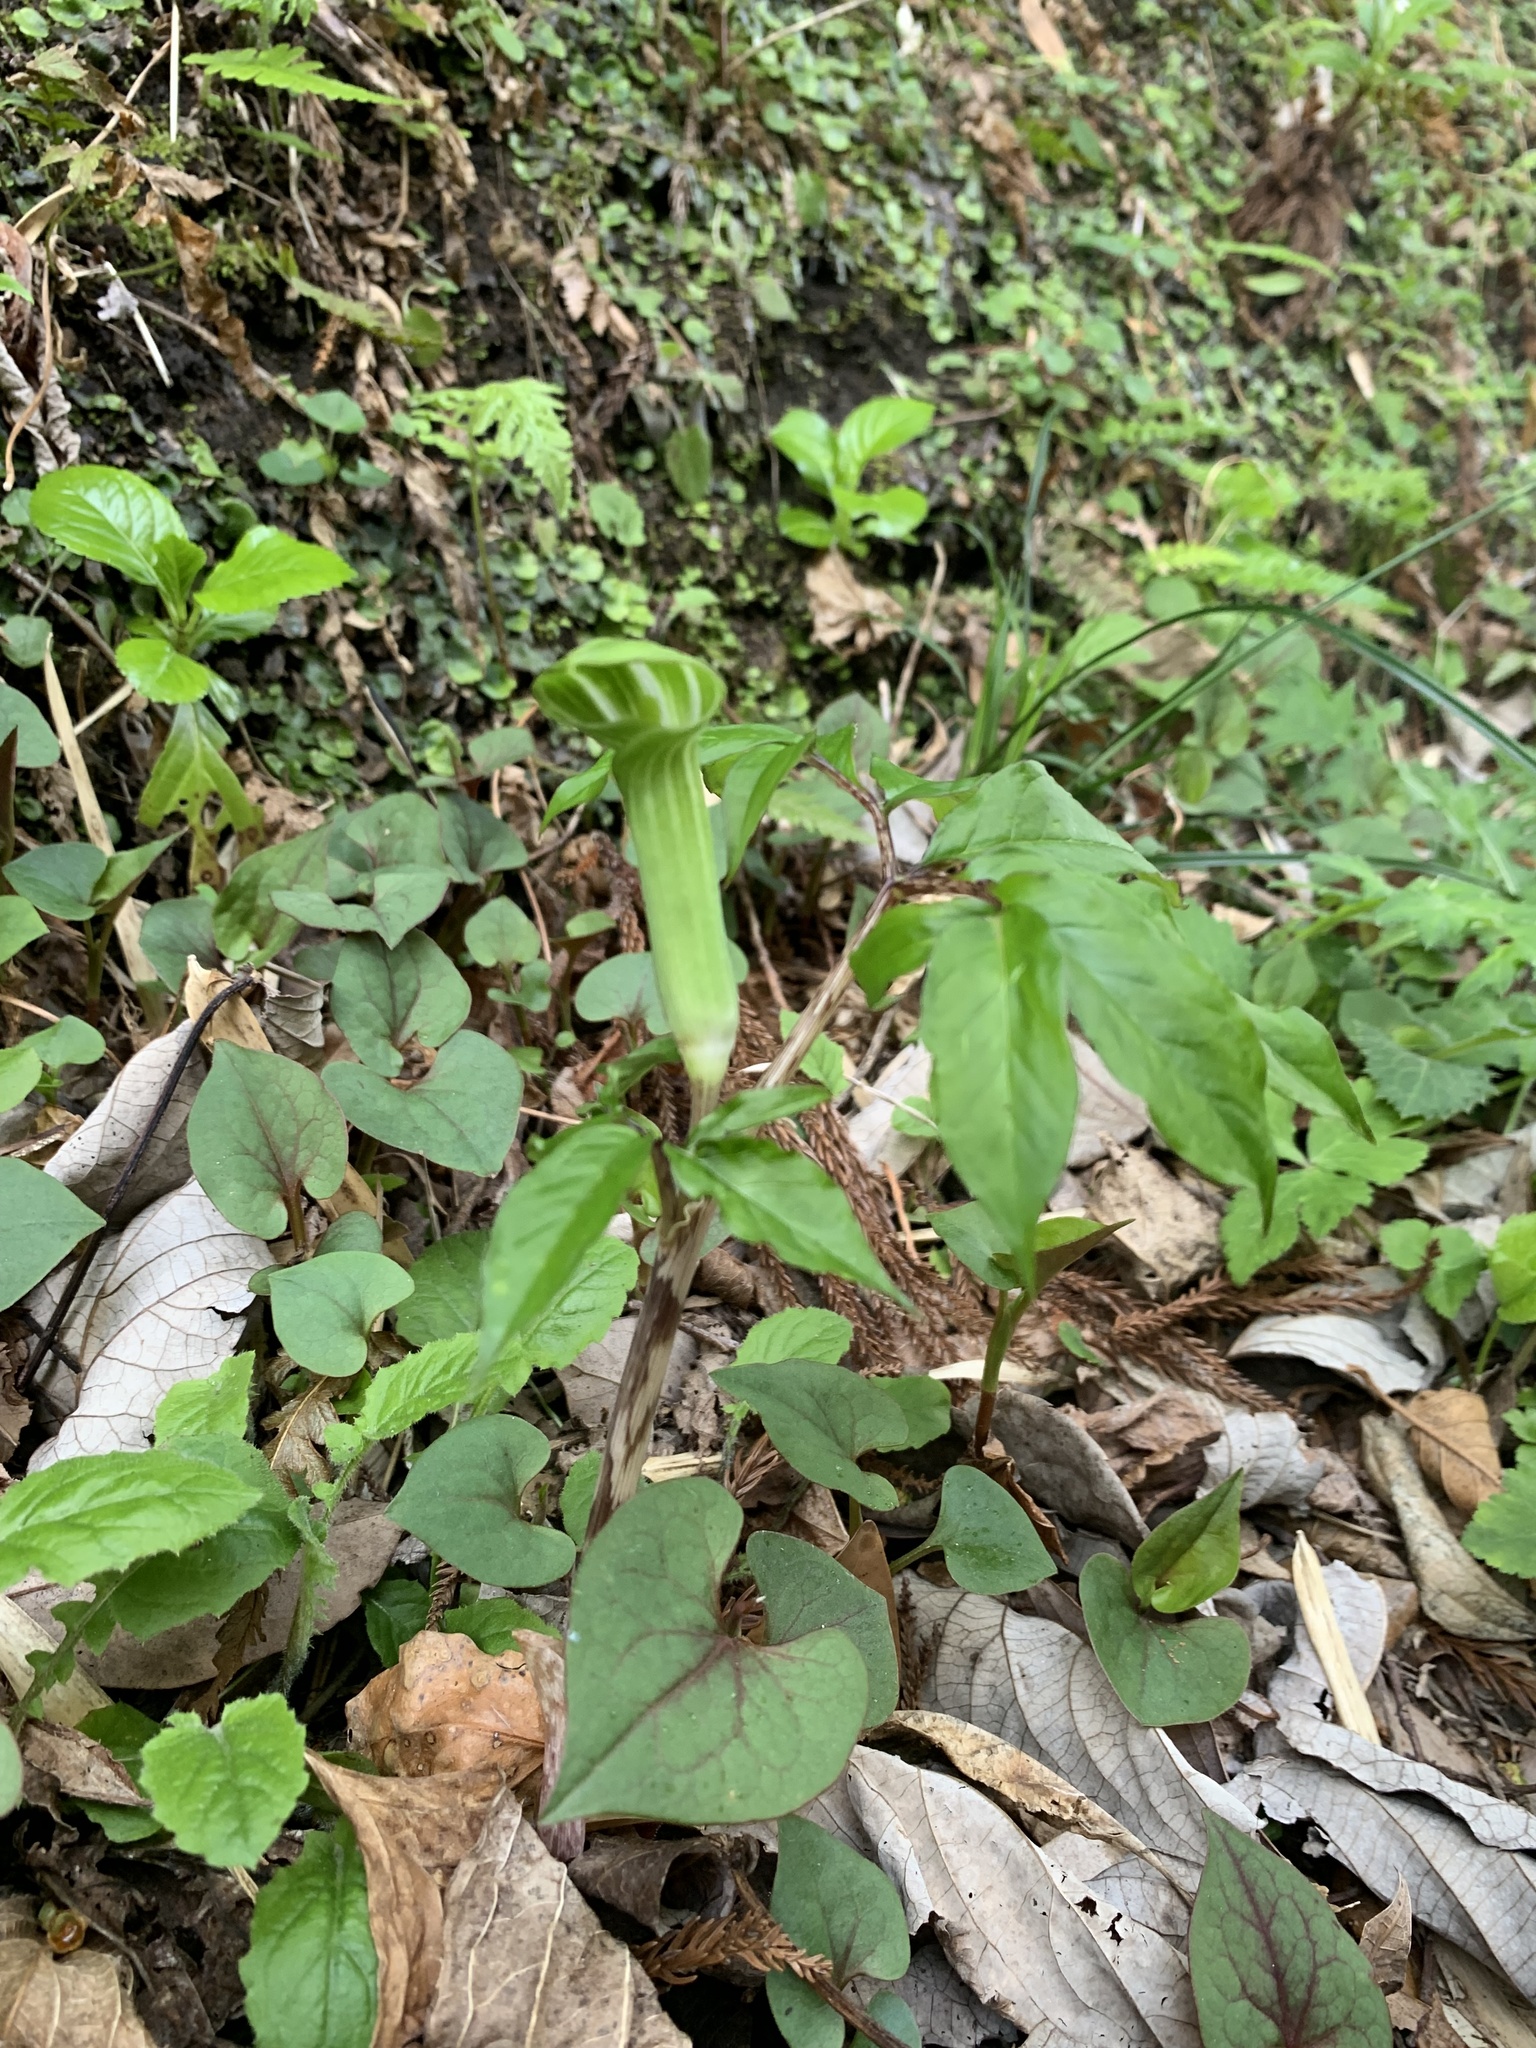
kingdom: Plantae
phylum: Tracheophyta
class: Liliopsida
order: Alismatales
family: Araceae
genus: Arisaema
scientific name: Arisaema angustatum
